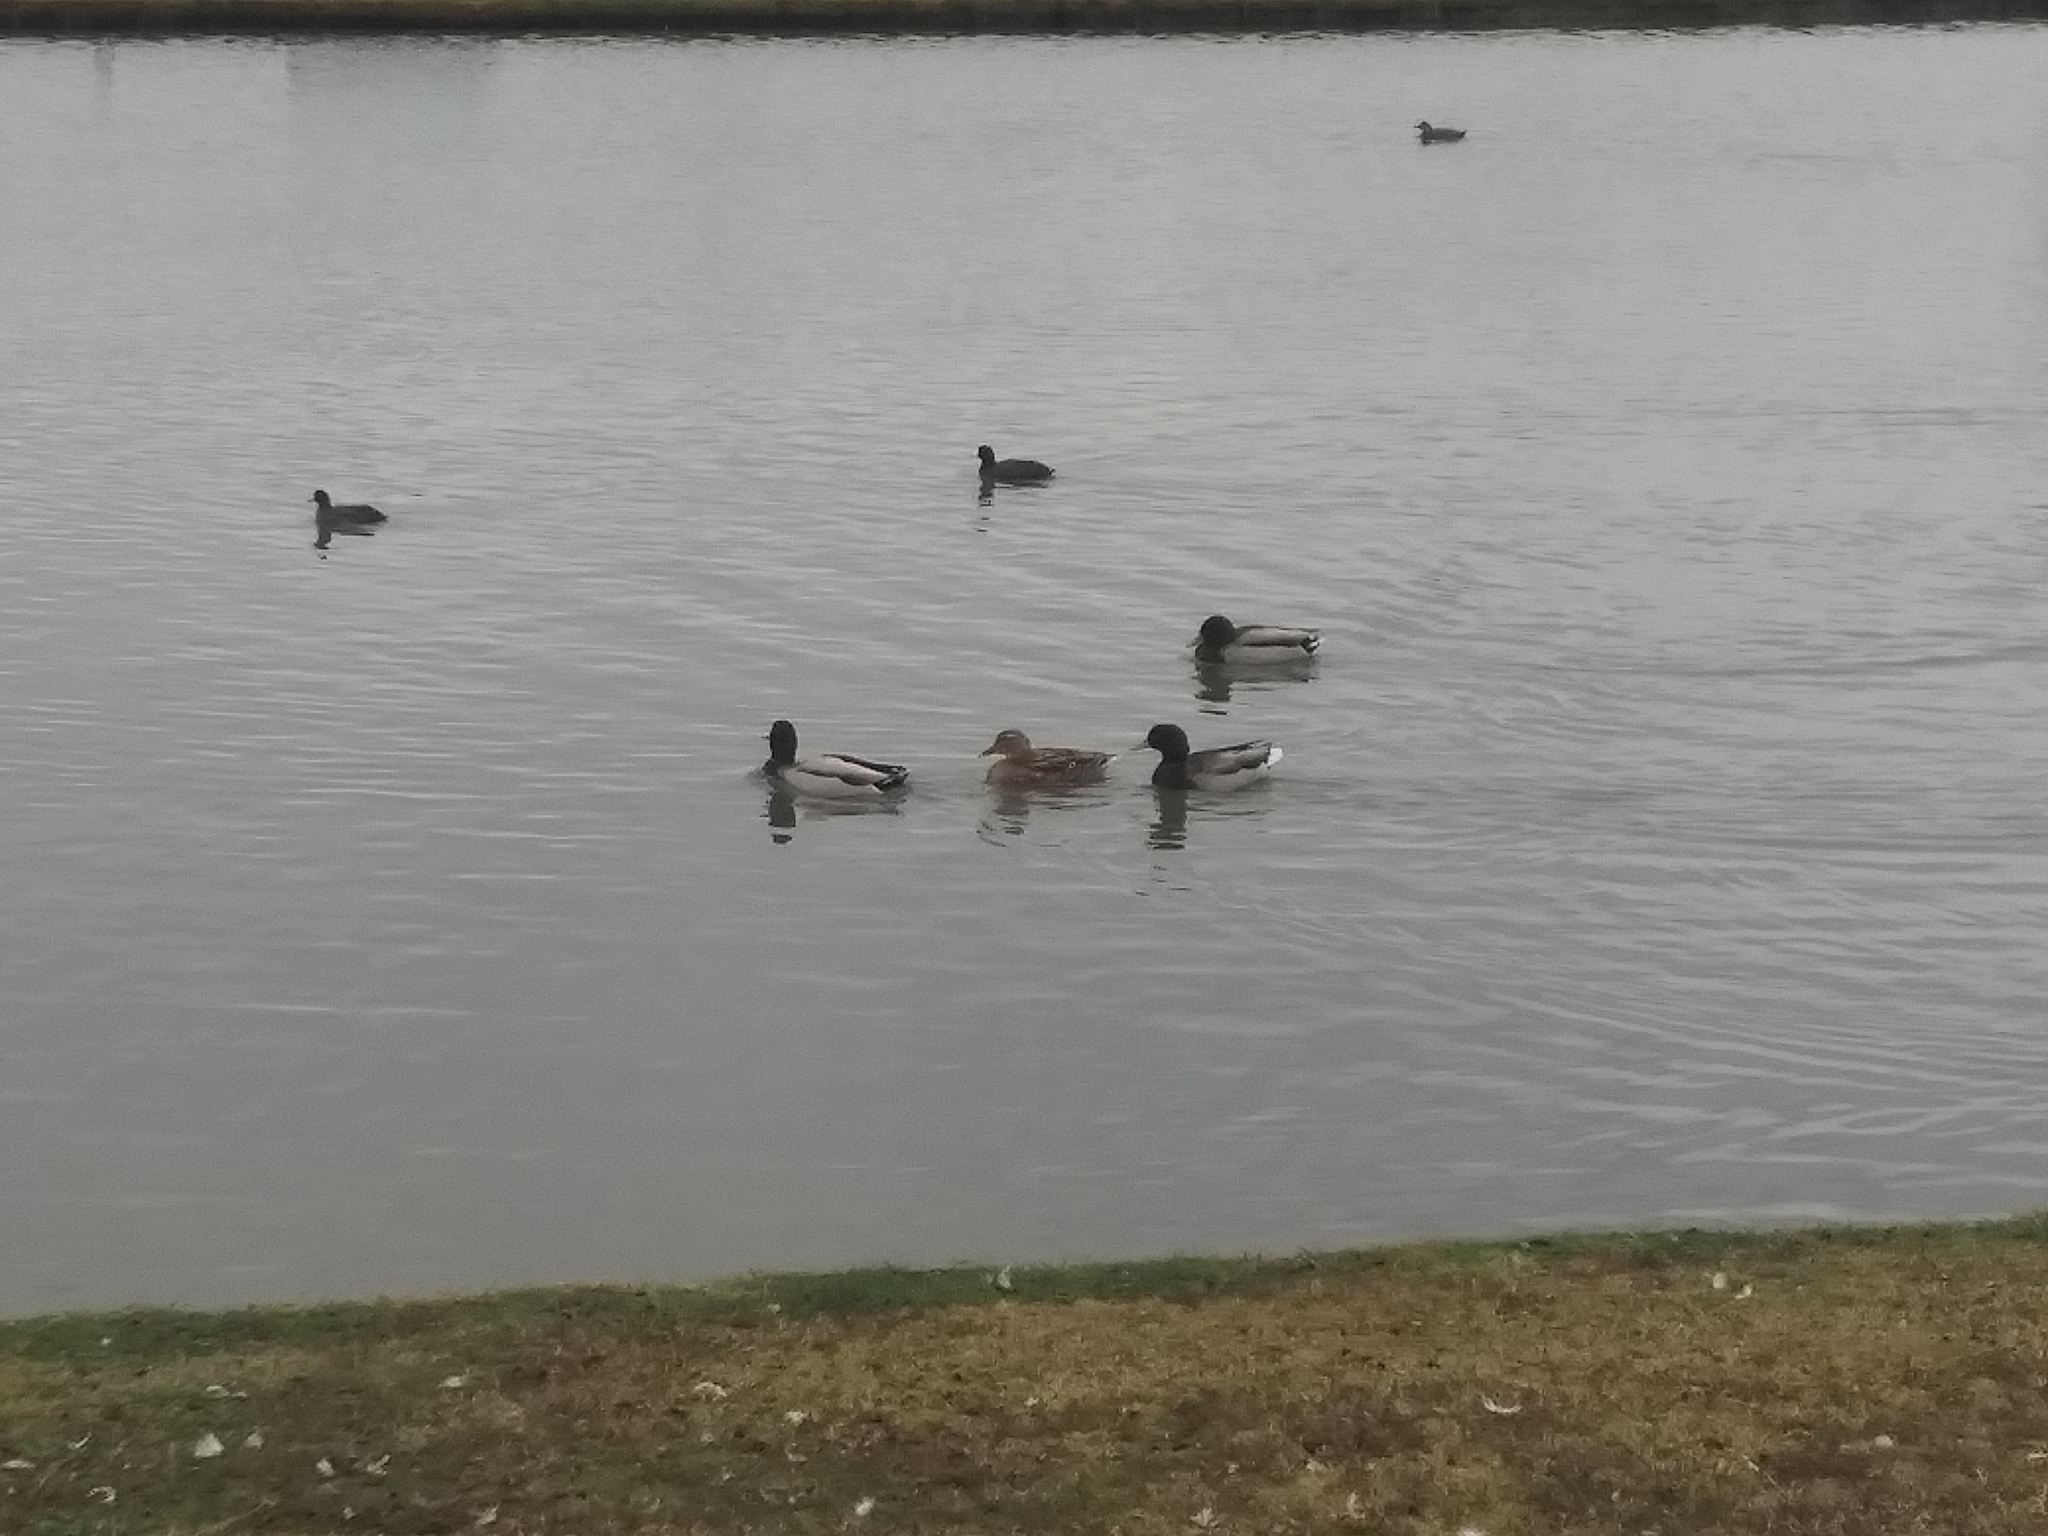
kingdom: Animalia
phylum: Chordata
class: Aves
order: Anseriformes
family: Anatidae
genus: Anas
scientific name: Anas platyrhynchos
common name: Mallard
